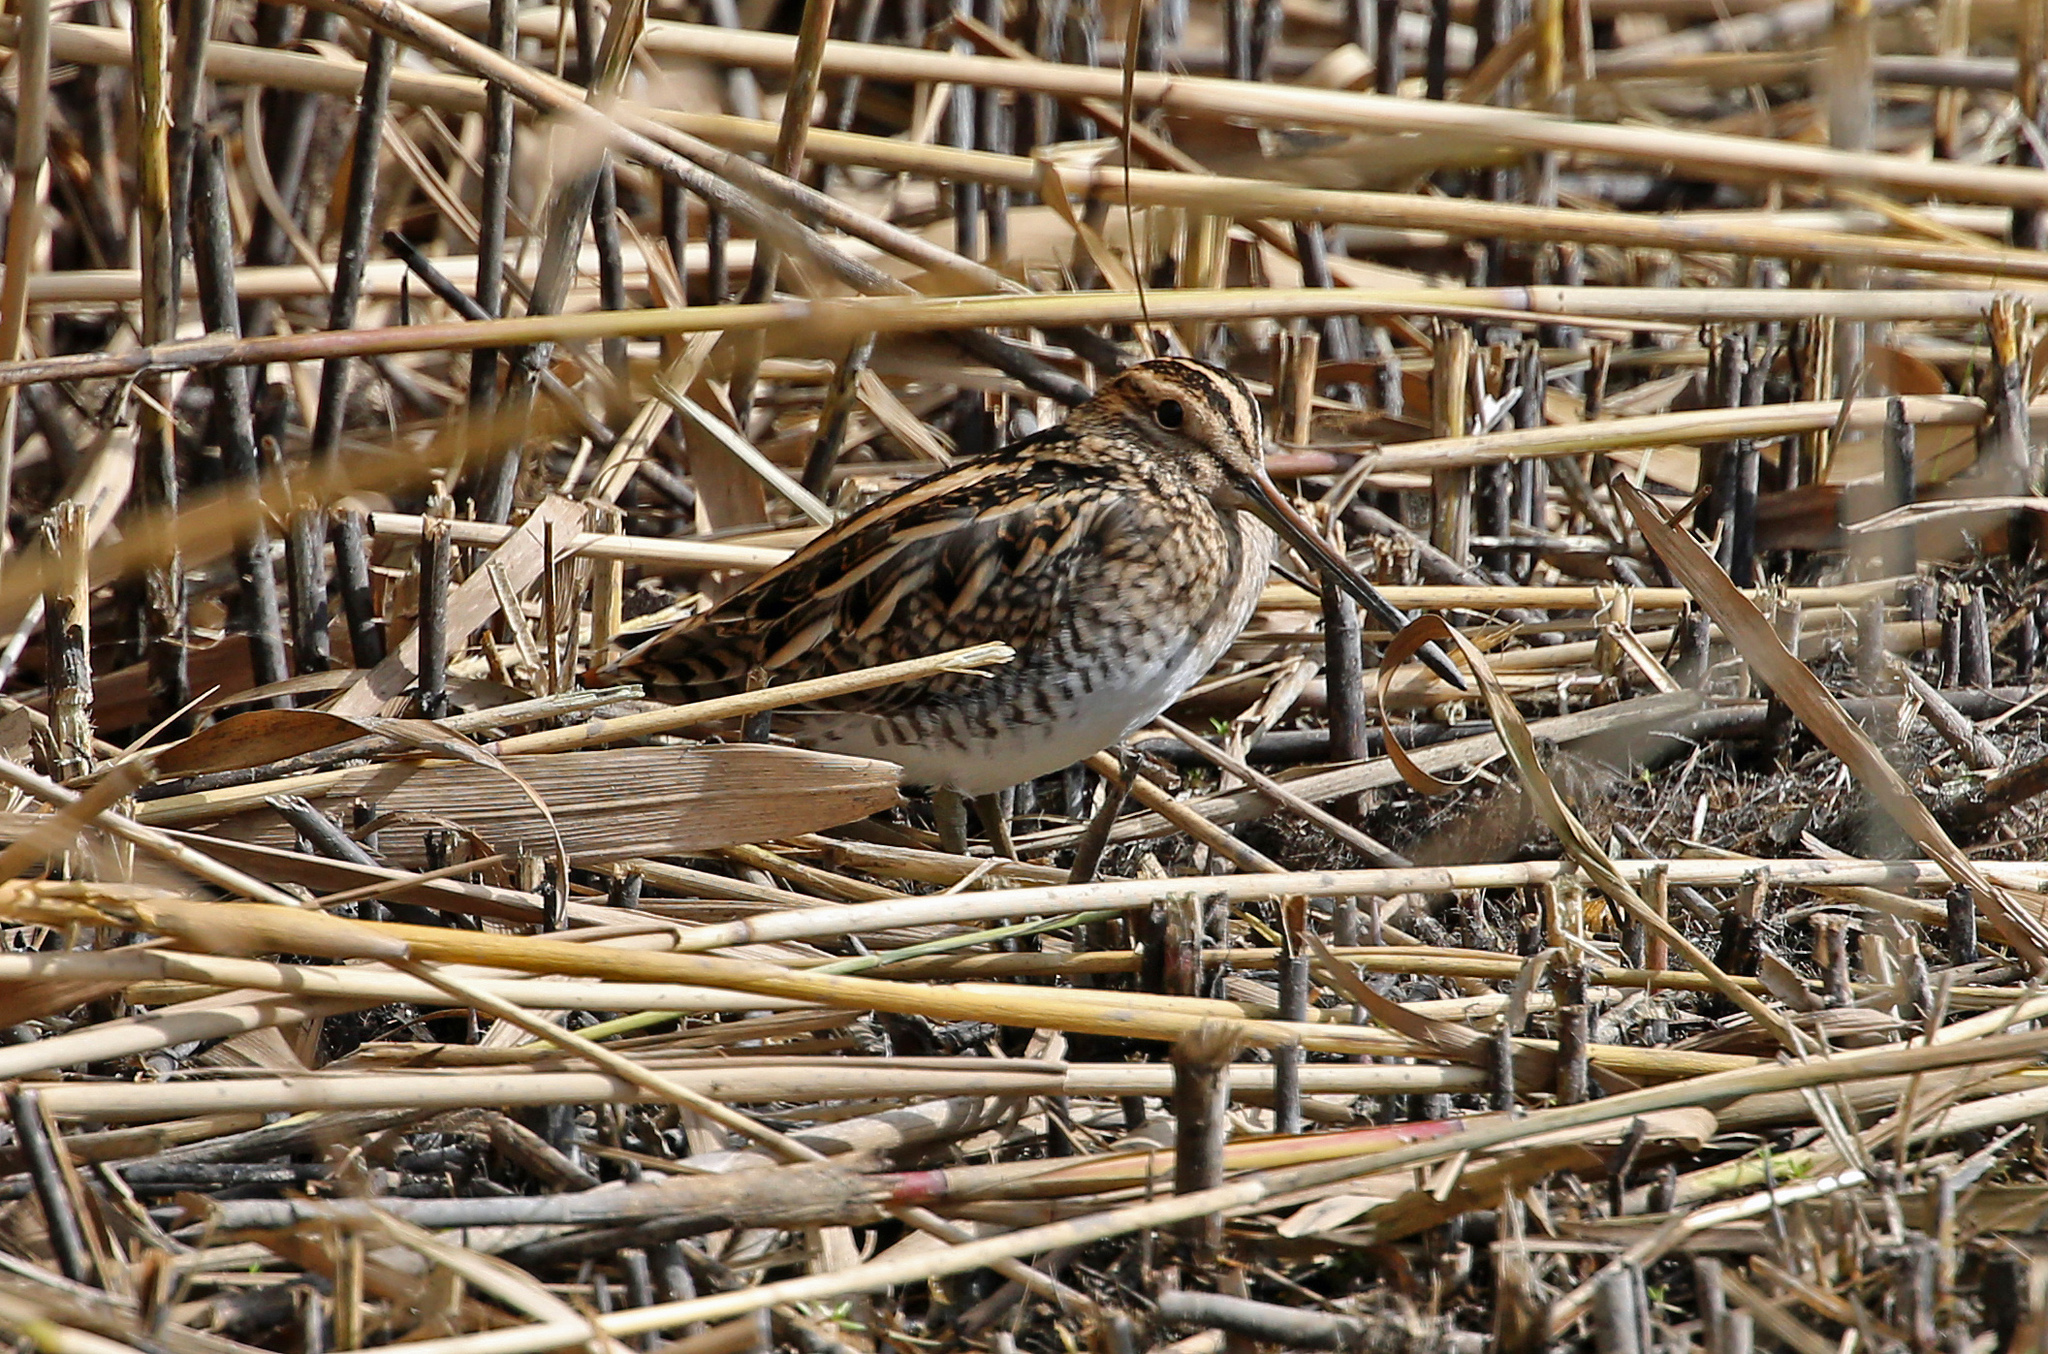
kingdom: Animalia
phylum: Chordata
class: Aves
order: Charadriiformes
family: Scolopacidae
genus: Gallinago
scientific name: Gallinago gallinago
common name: Common snipe
